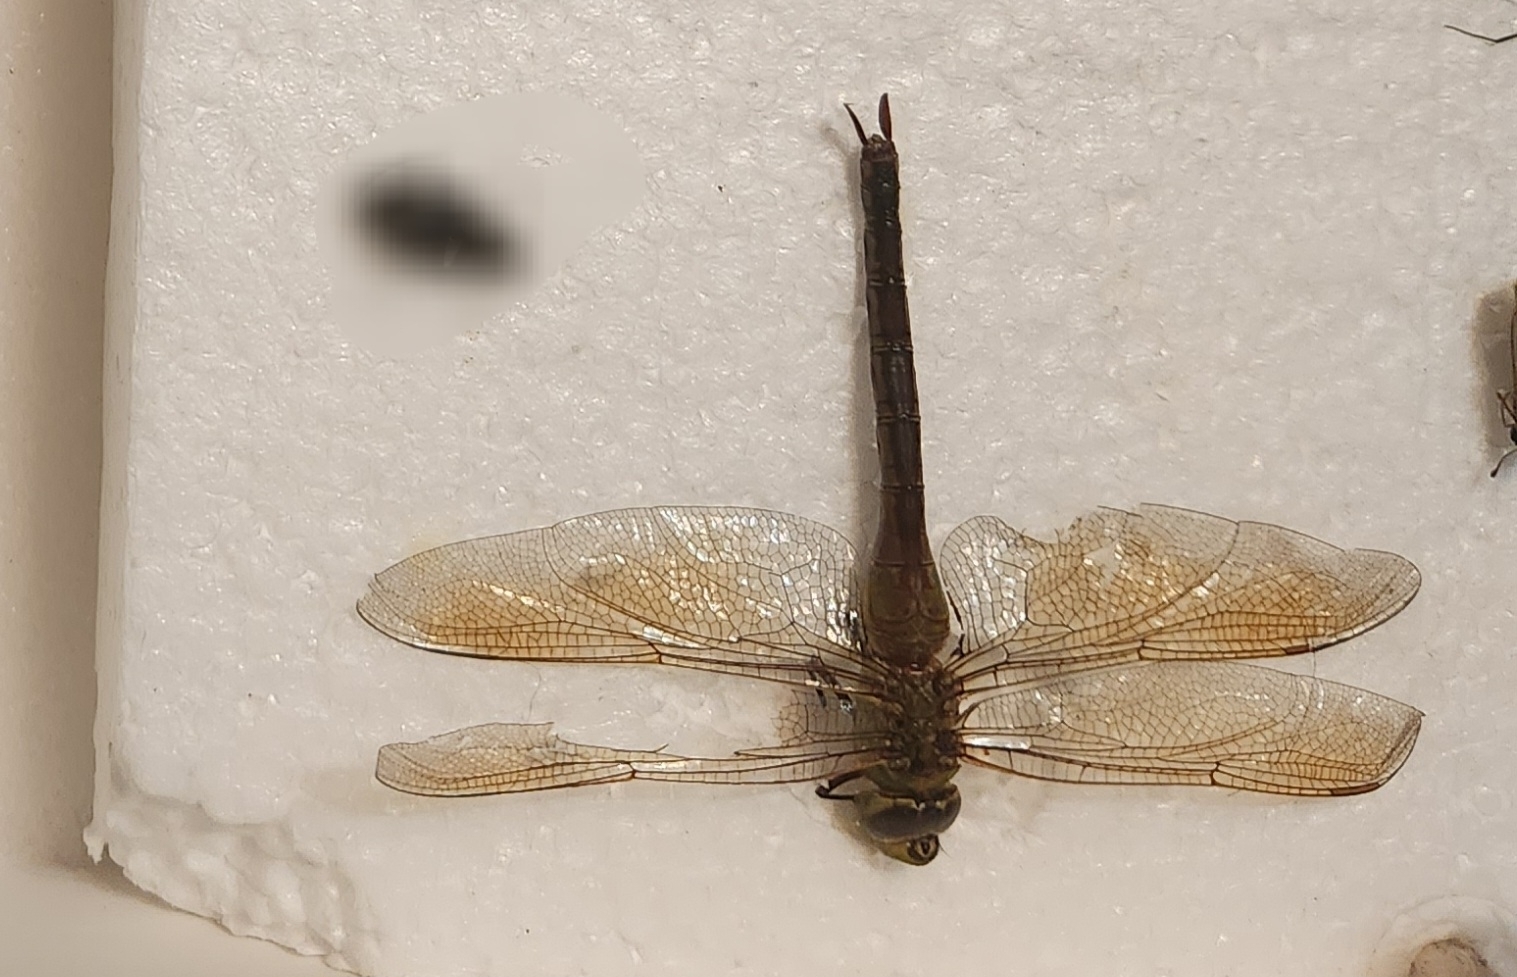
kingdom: Animalia
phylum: Arthropoda
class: Insecta
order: Odonata
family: Aeshnidae
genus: Anax
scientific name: Anax junius
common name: Common green darner
